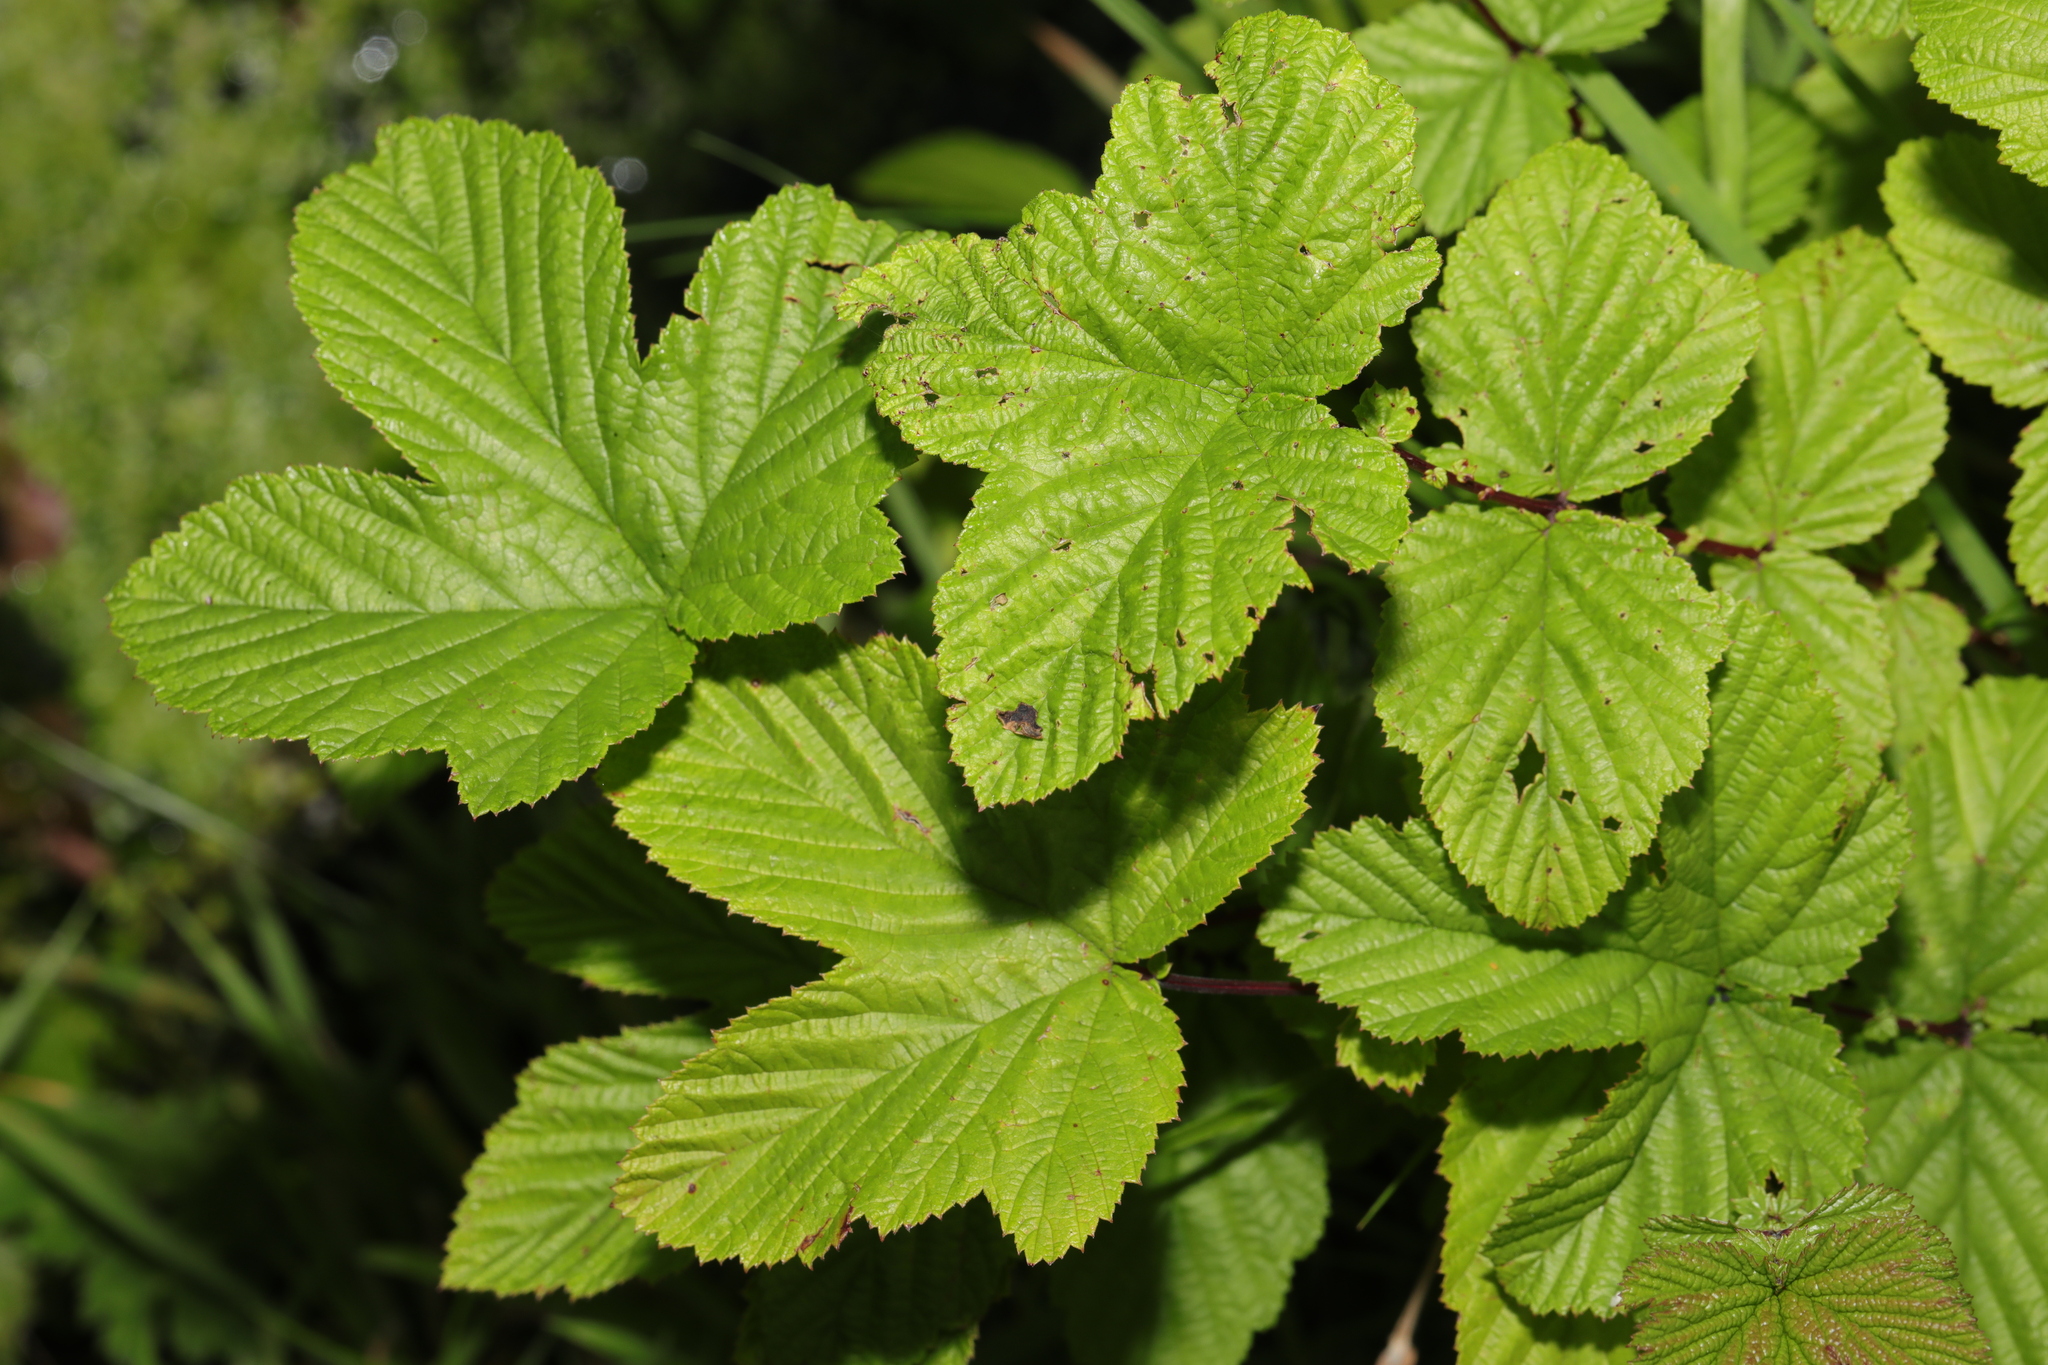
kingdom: Plantae
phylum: Tracheophyta
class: Magnoliopsida
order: Rosales
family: Rosaceae
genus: Filipendula
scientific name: Filipendula ulmaria
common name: Meadowsweet
